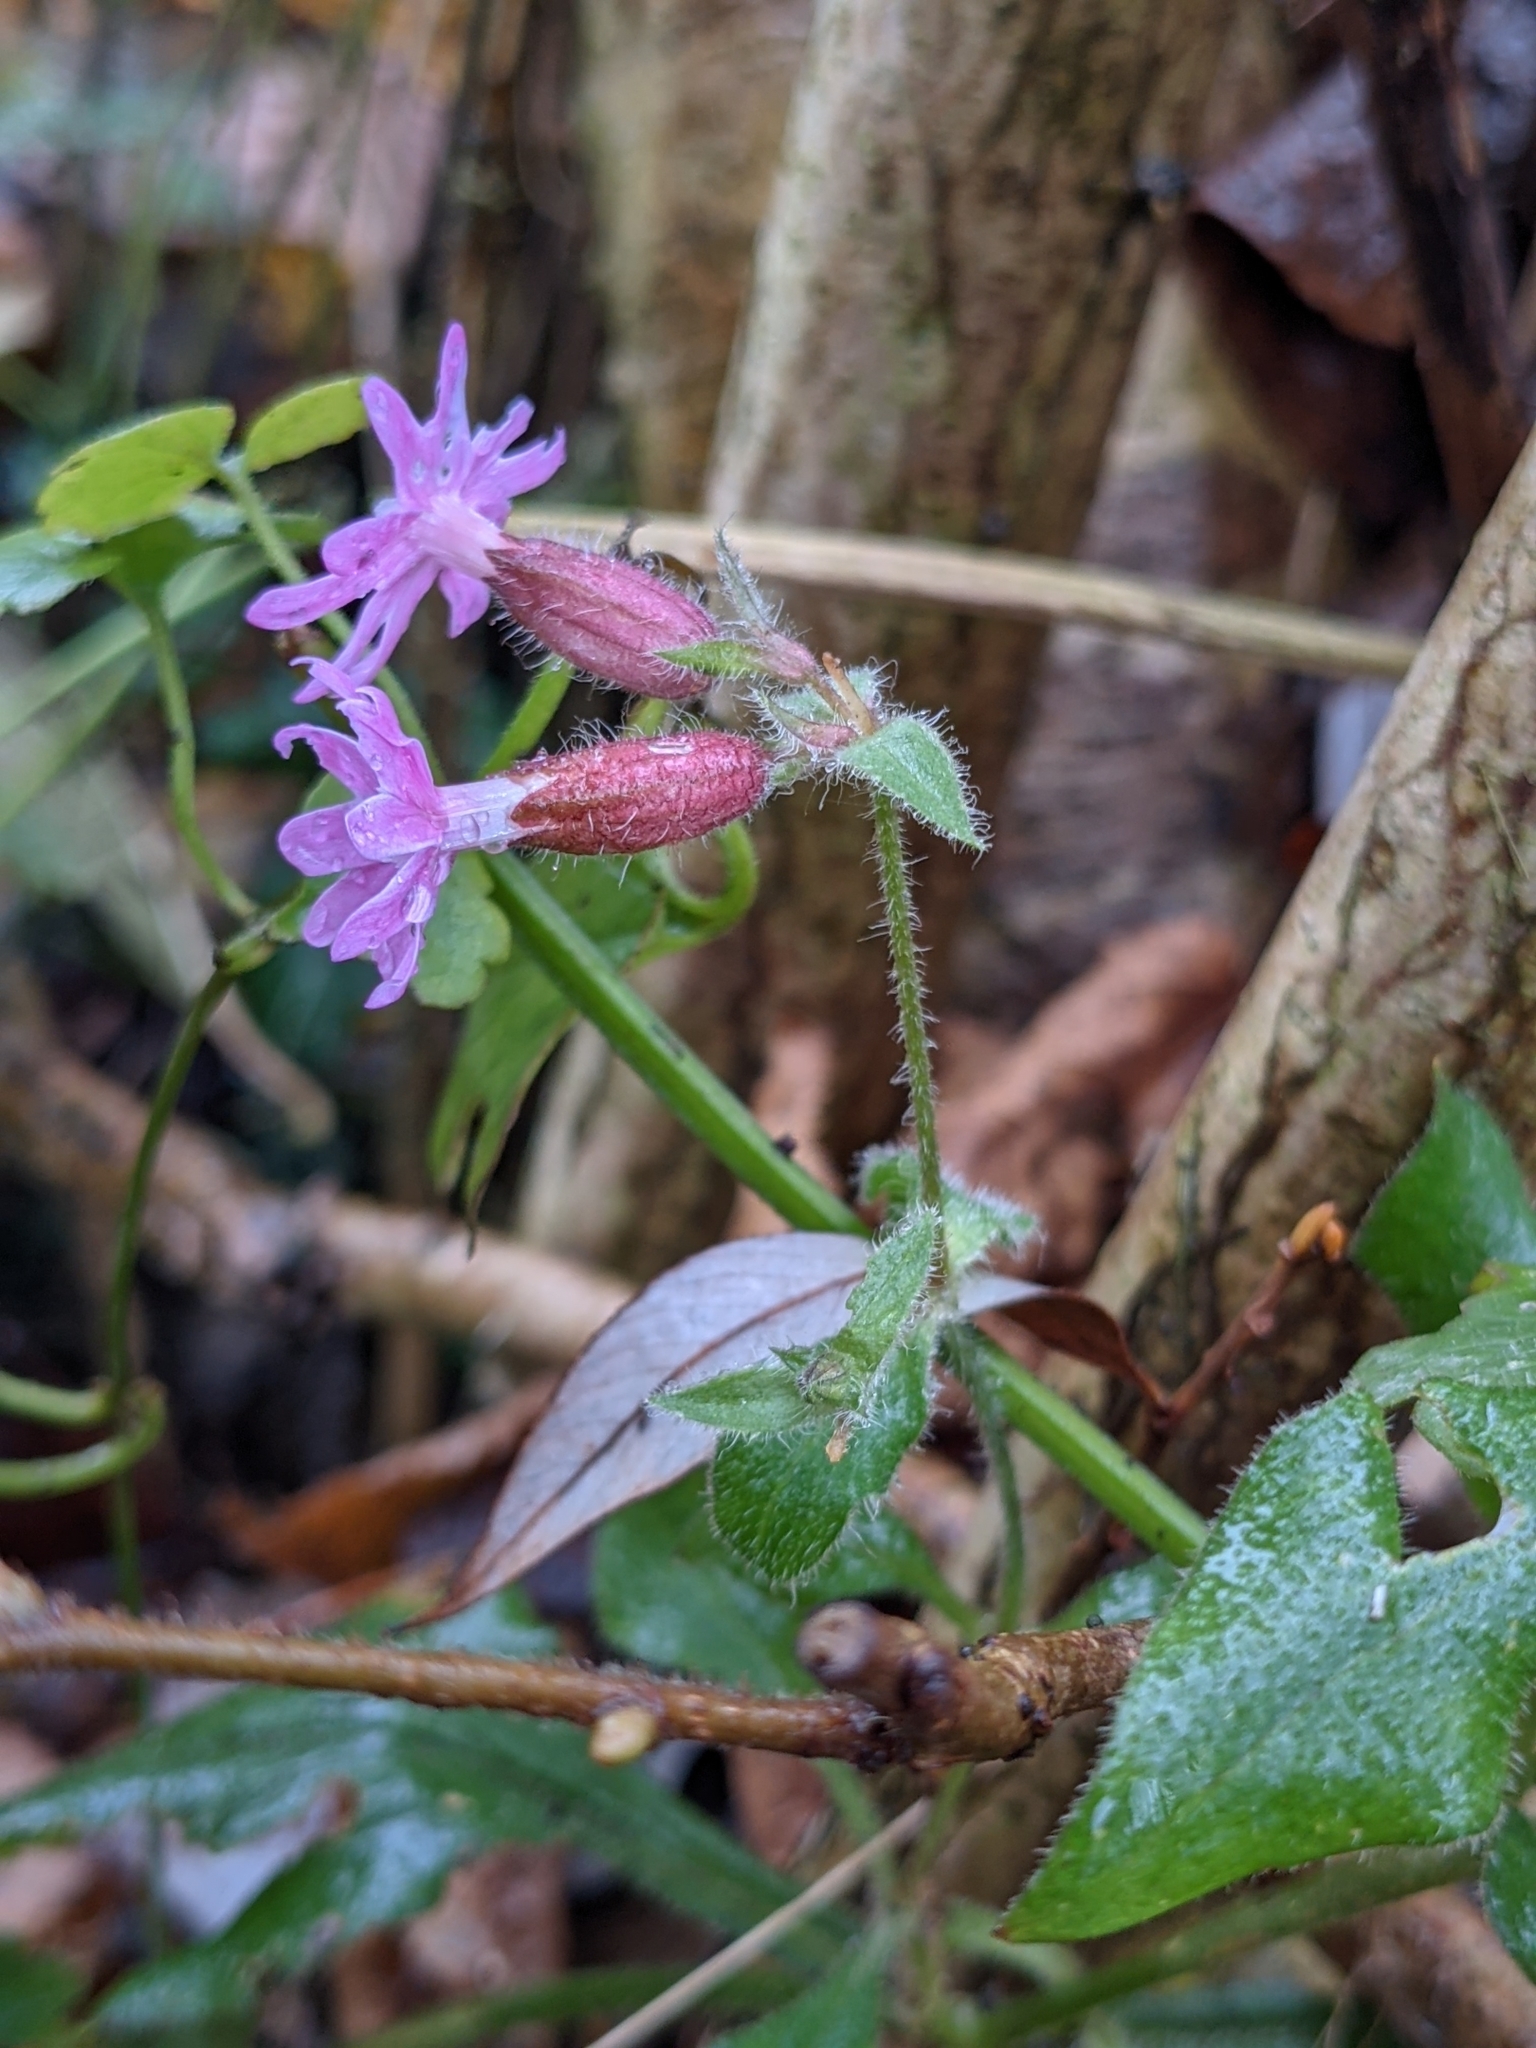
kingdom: Plantae
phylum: Tracheophyta
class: Magnoliopsida
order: Caryophyllales
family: Caryophyllaceae
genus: Silene
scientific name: Silene dioica
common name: Red campion
